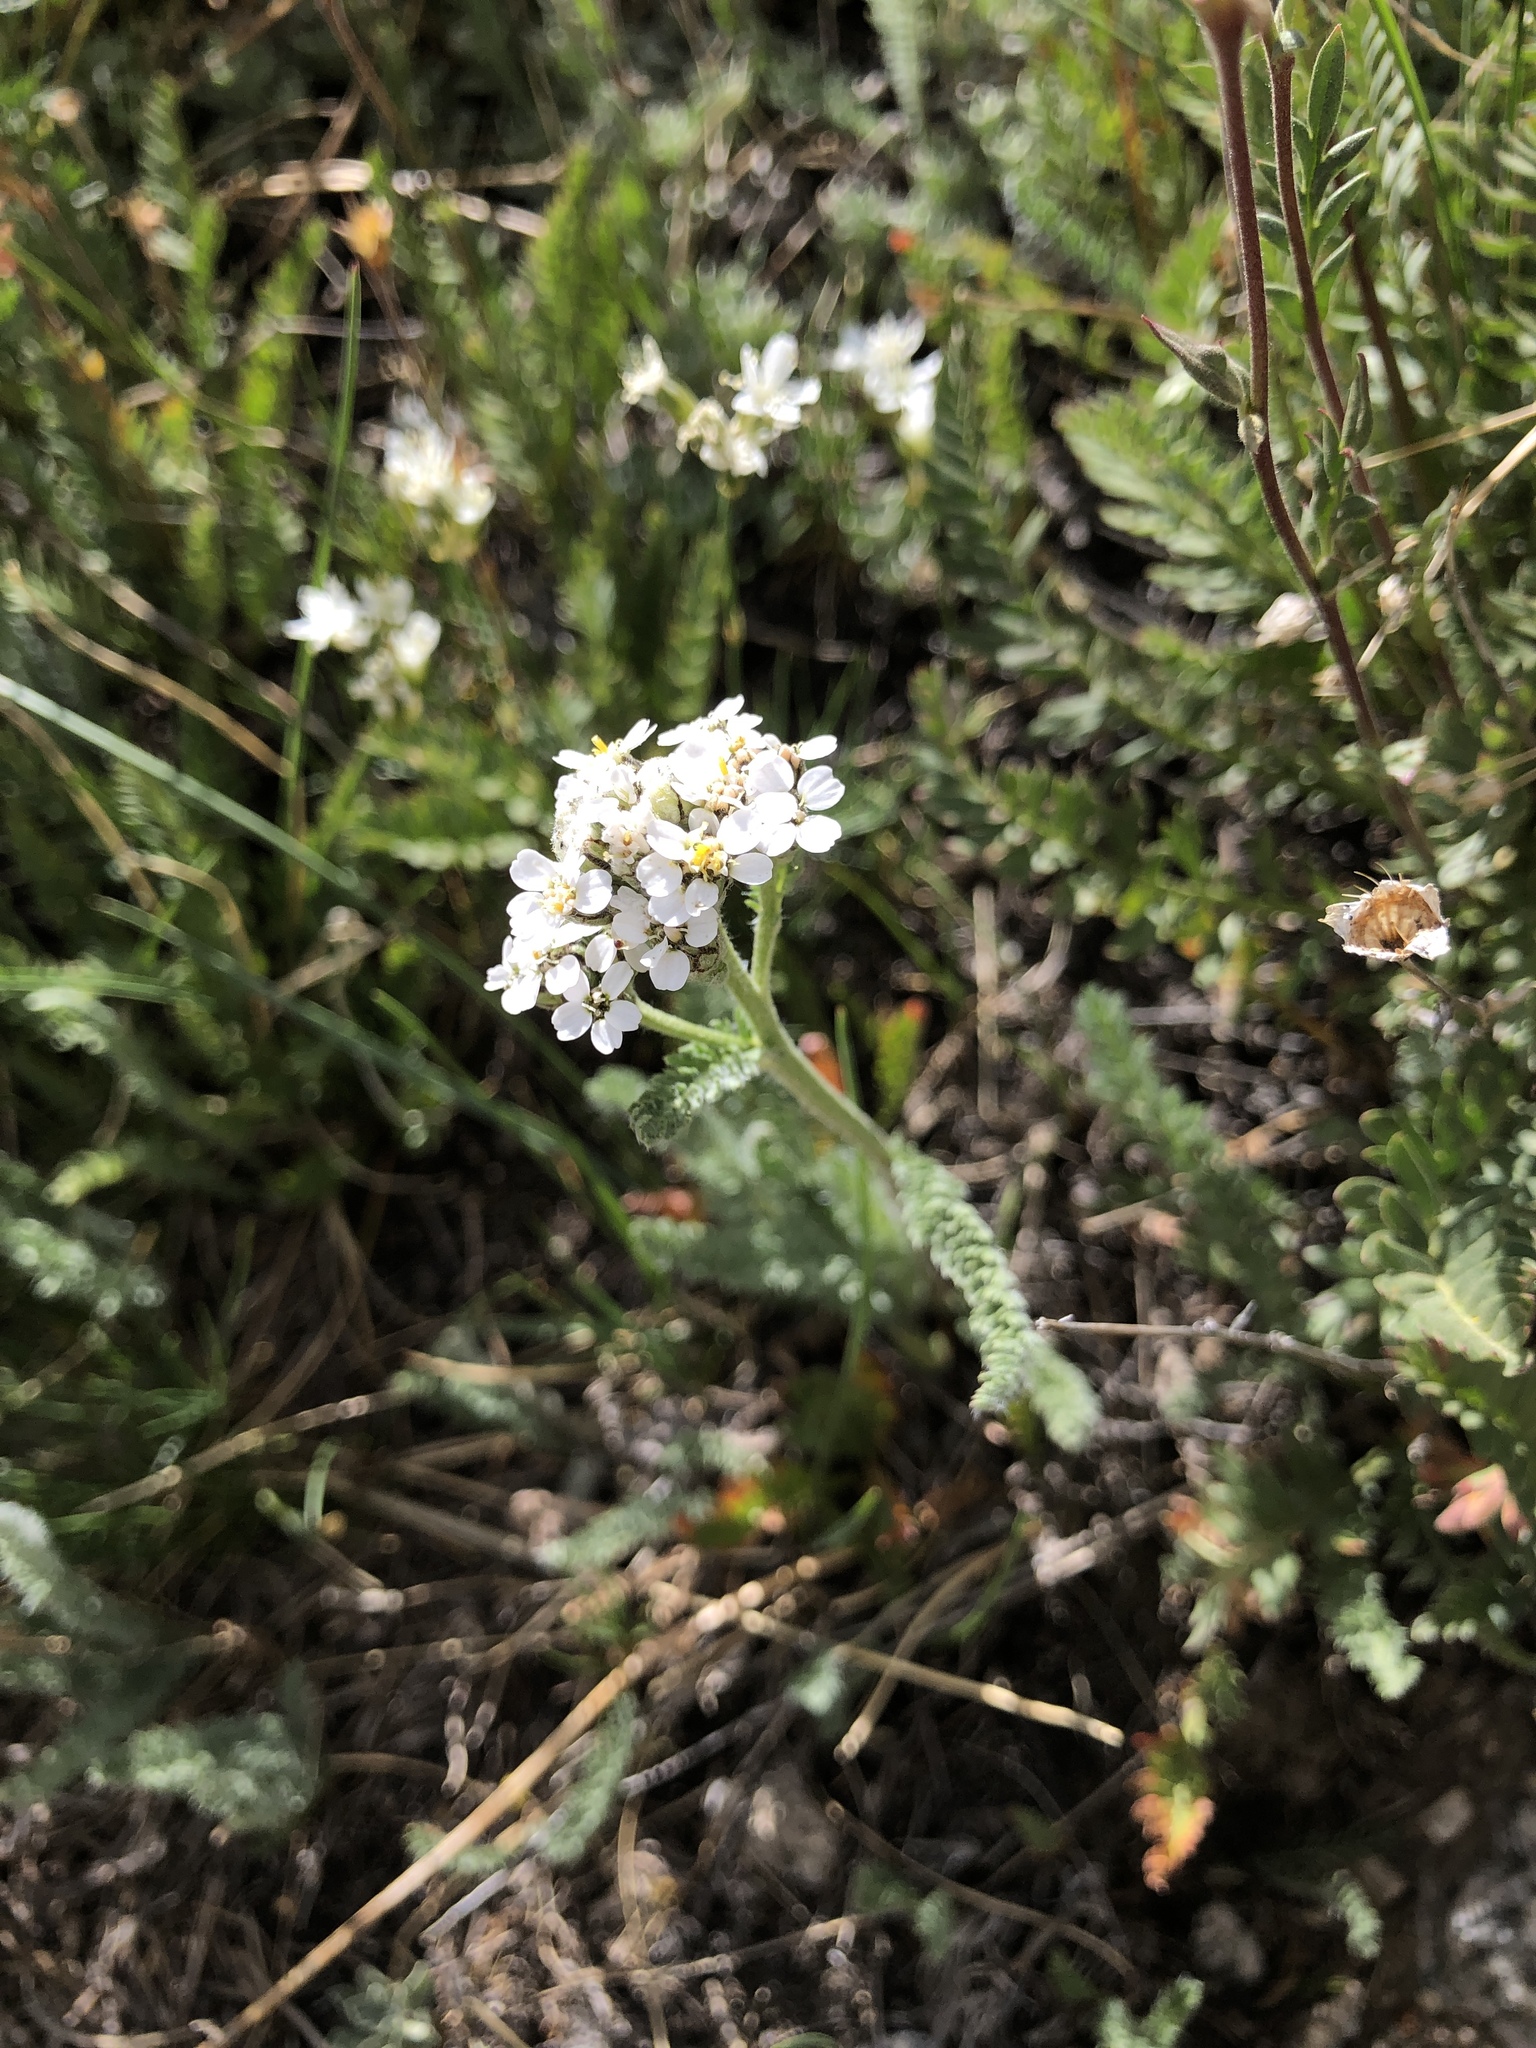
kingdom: Plantae
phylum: Tracheophyta
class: Magnoliopsida
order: Asterales
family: Asteraceae
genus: Achillea
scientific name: Achillea millefolium
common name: Yarrow
